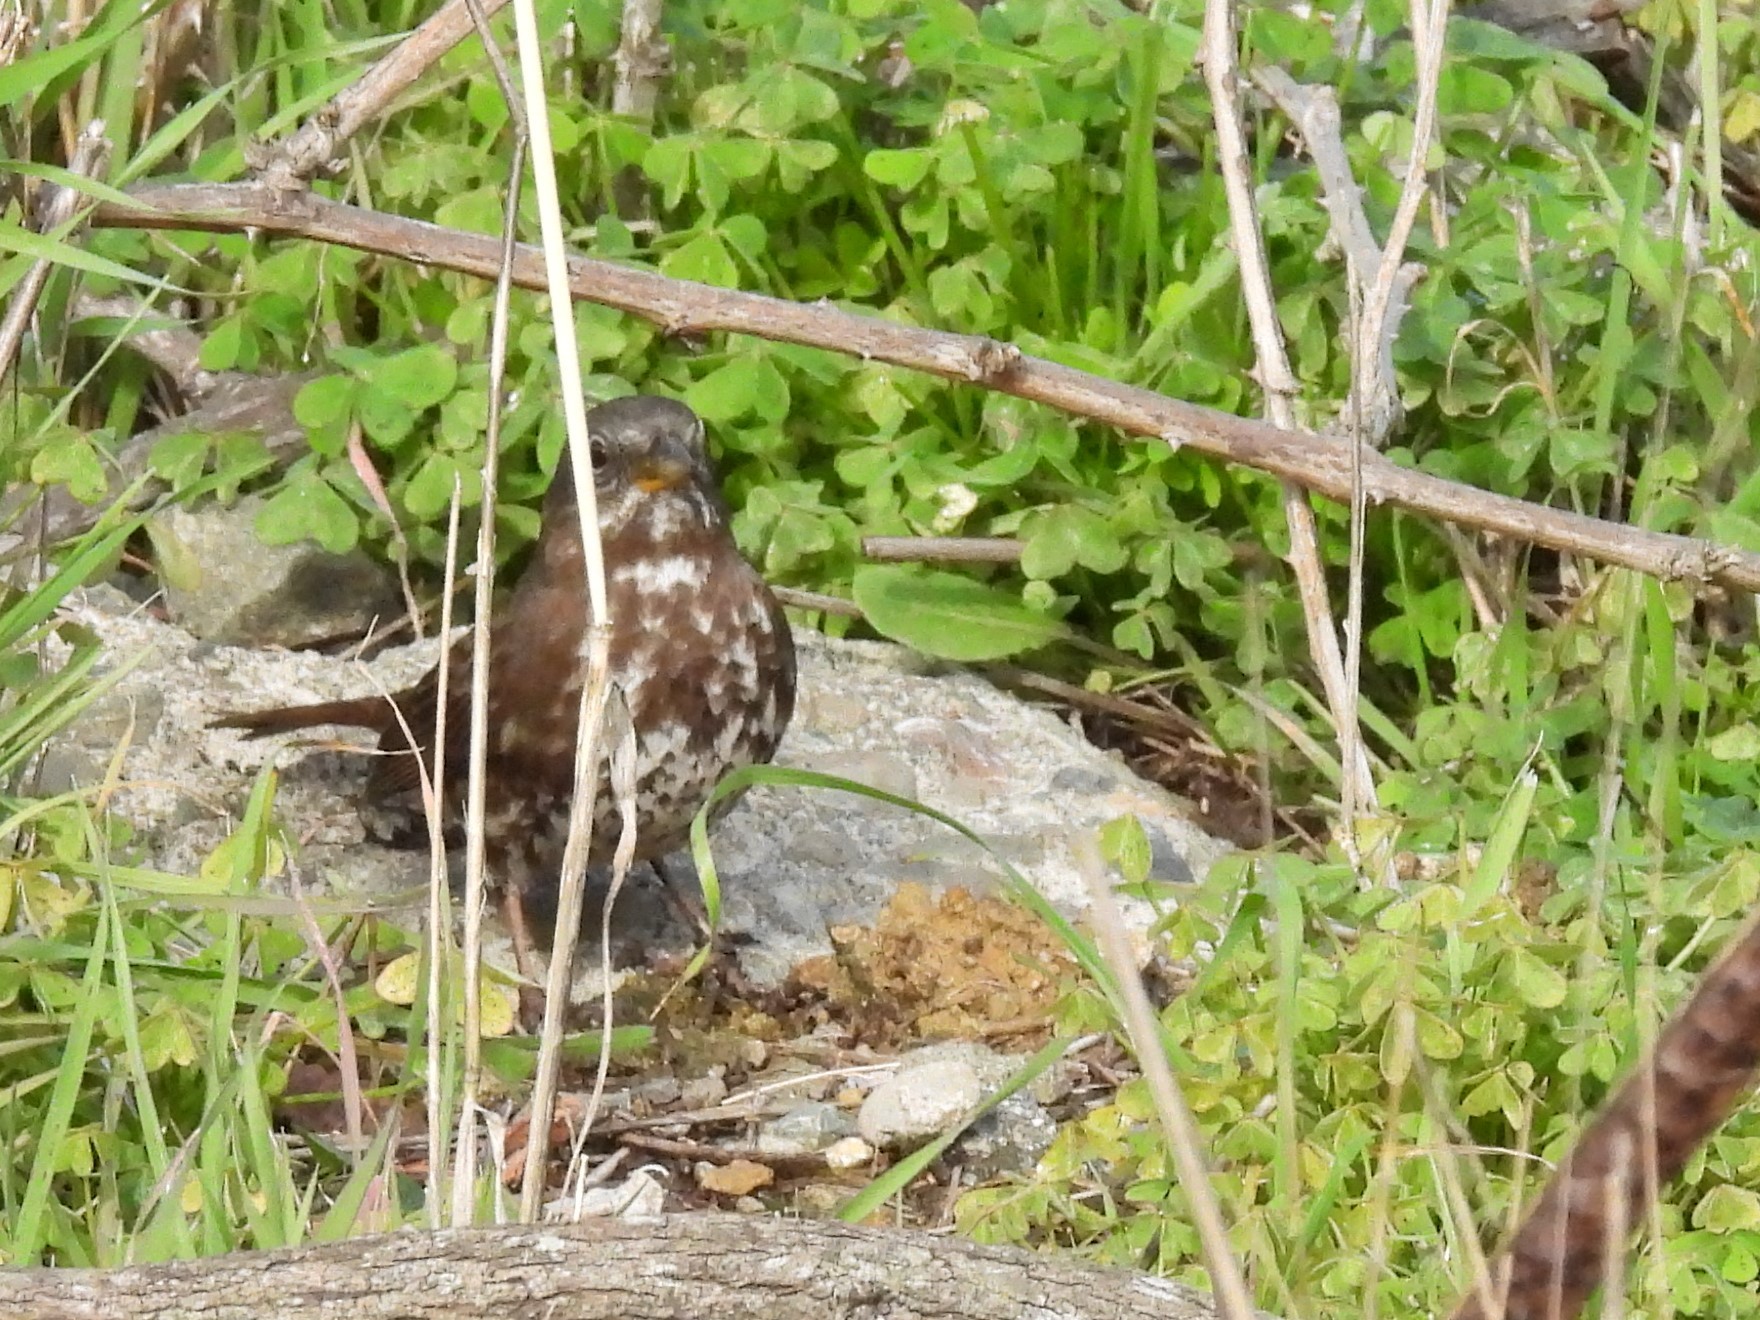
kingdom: Animalia
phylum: Chordata
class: Aves
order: Passeriformes
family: Passerellidae
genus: Passerella
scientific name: Passerella iliaca
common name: Fox sparrow
